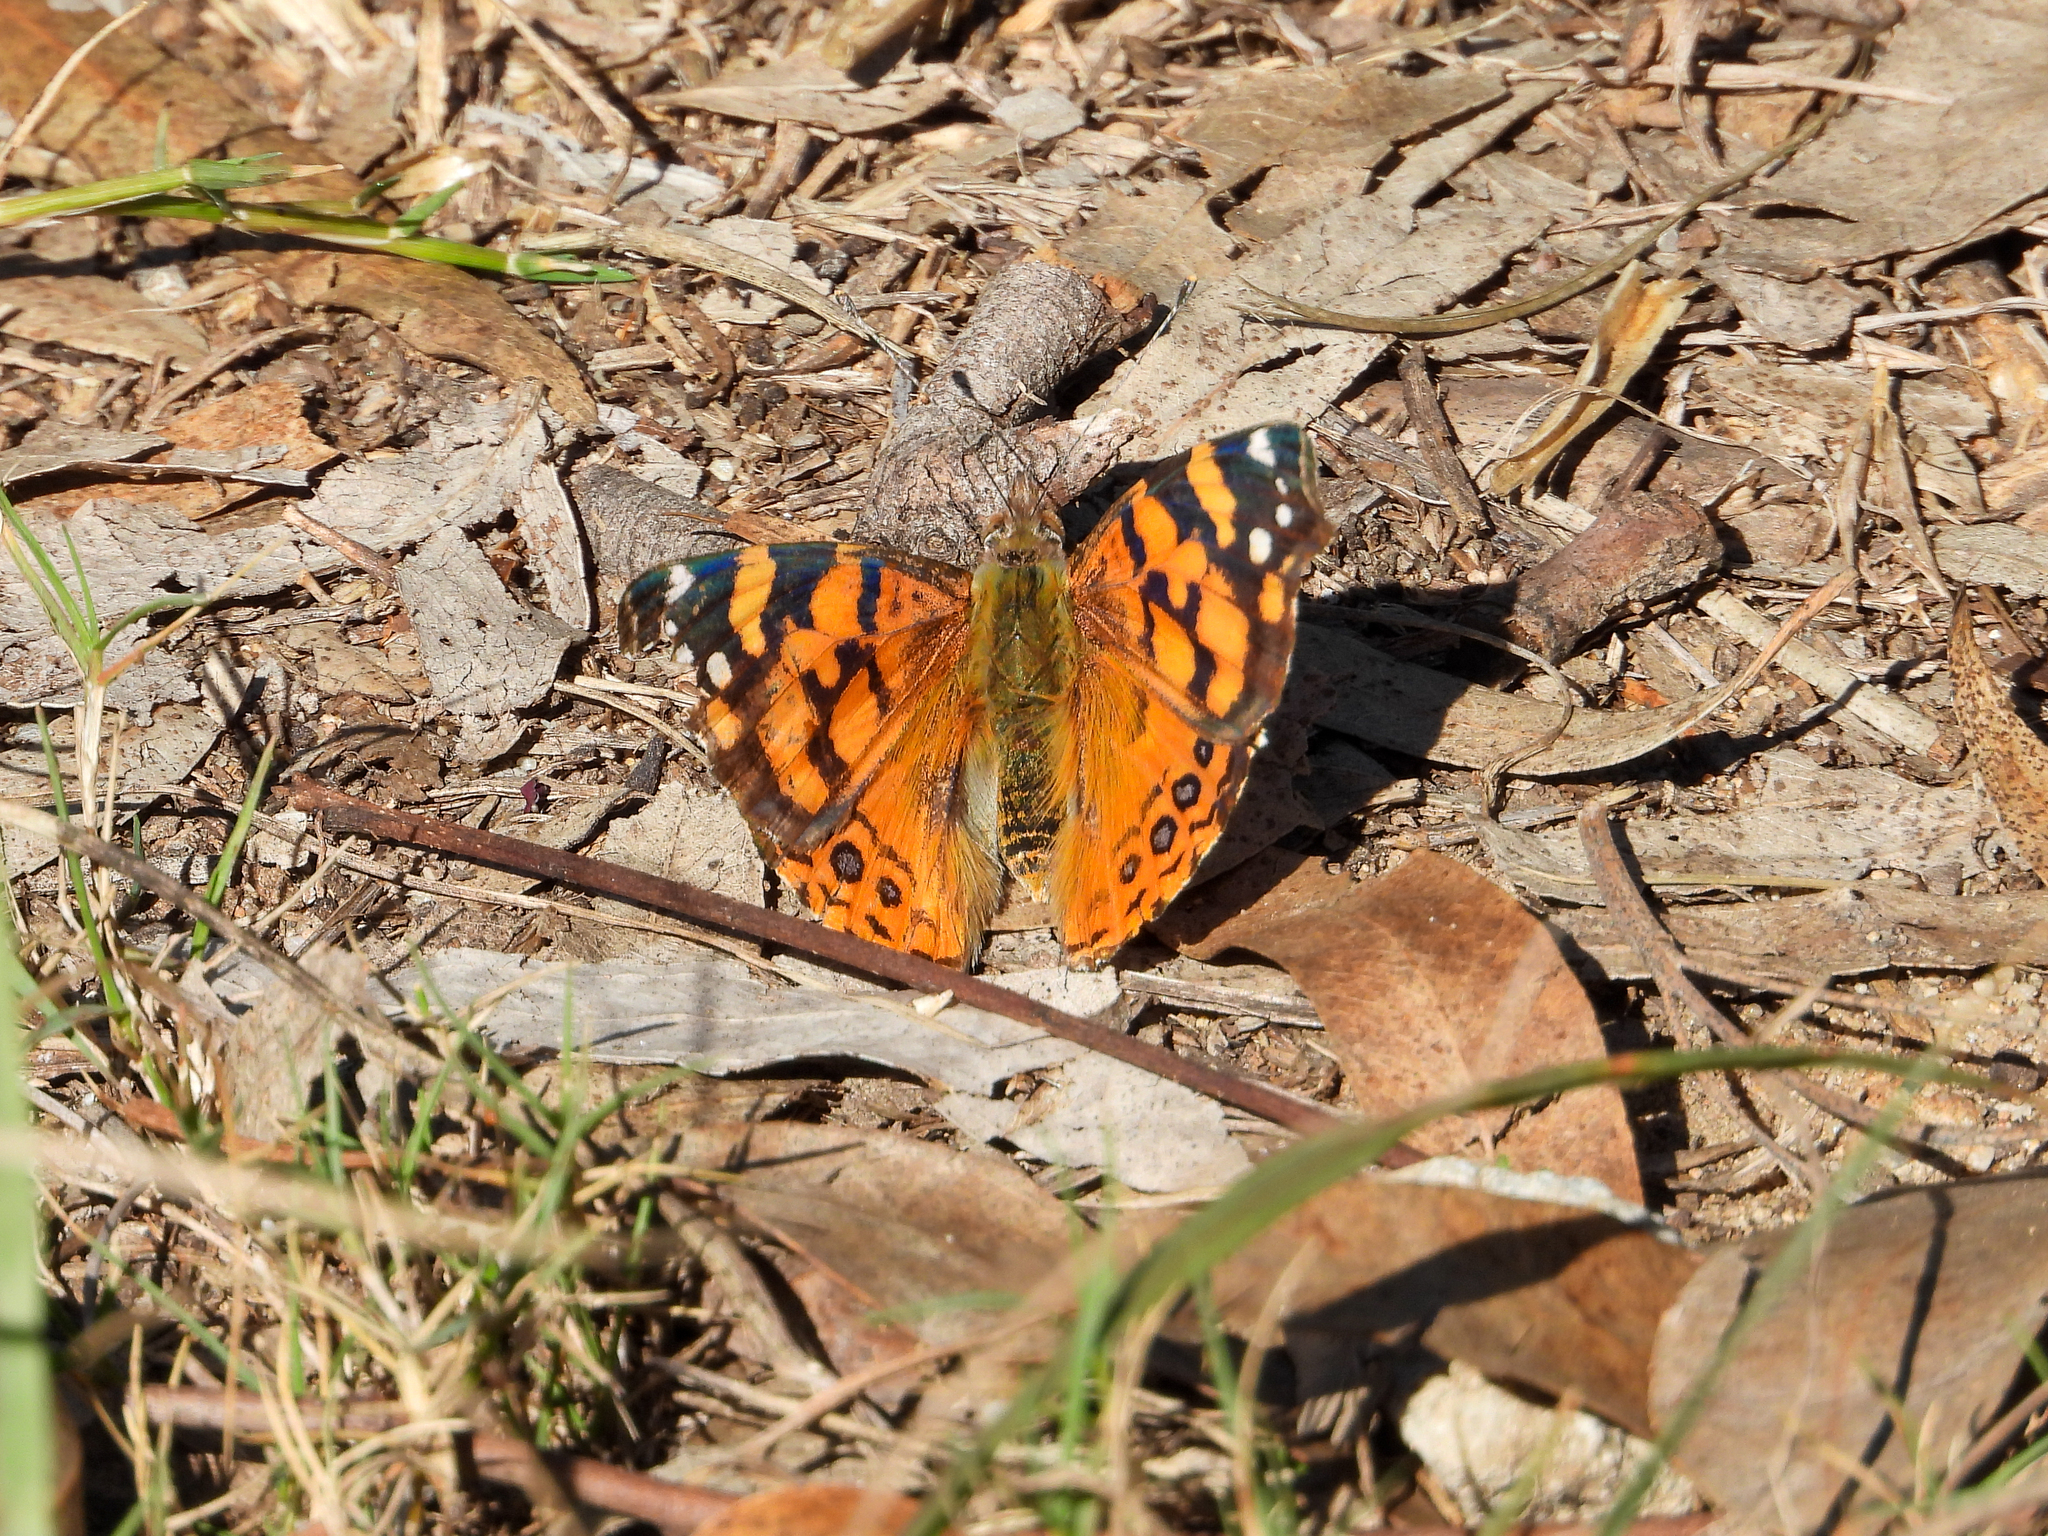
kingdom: Animalia
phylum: Arthropoda
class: Insecta
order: Lepidoptera
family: Nymphalidae
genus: Vanessa
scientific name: Vanessa annabella
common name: West coast lady
